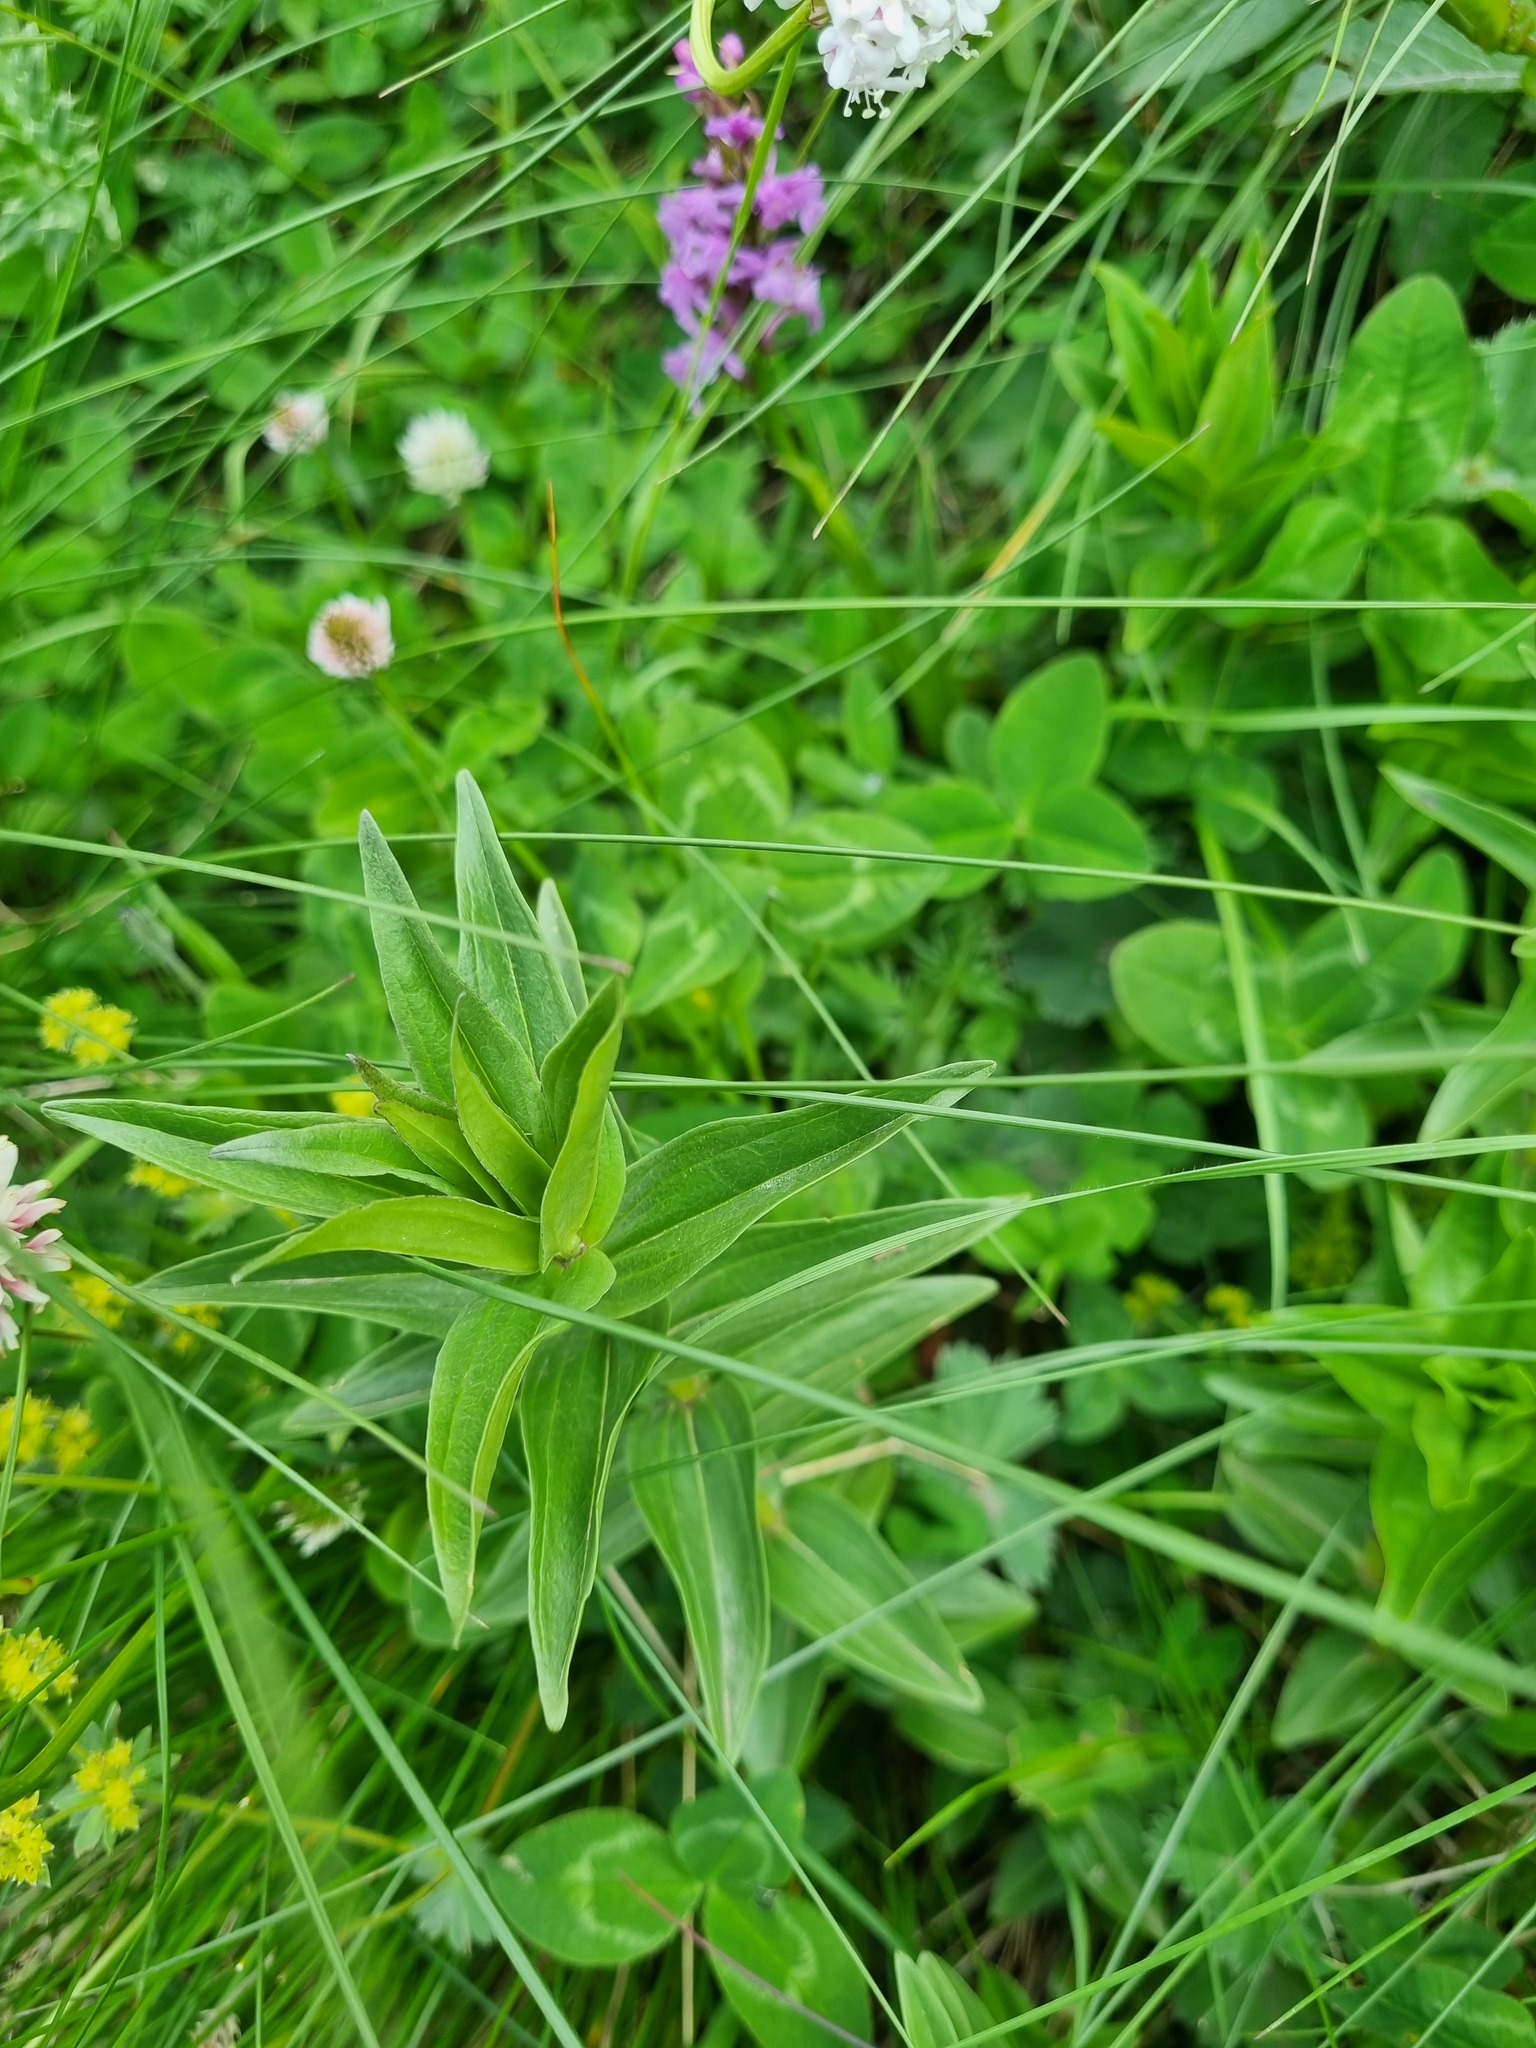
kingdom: Plantae
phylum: Tracheophyta
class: Magnoliopsida
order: Gentianales
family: Gentianaceae
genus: Gentiana
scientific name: Gentiana septemfida
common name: Crested gentian
